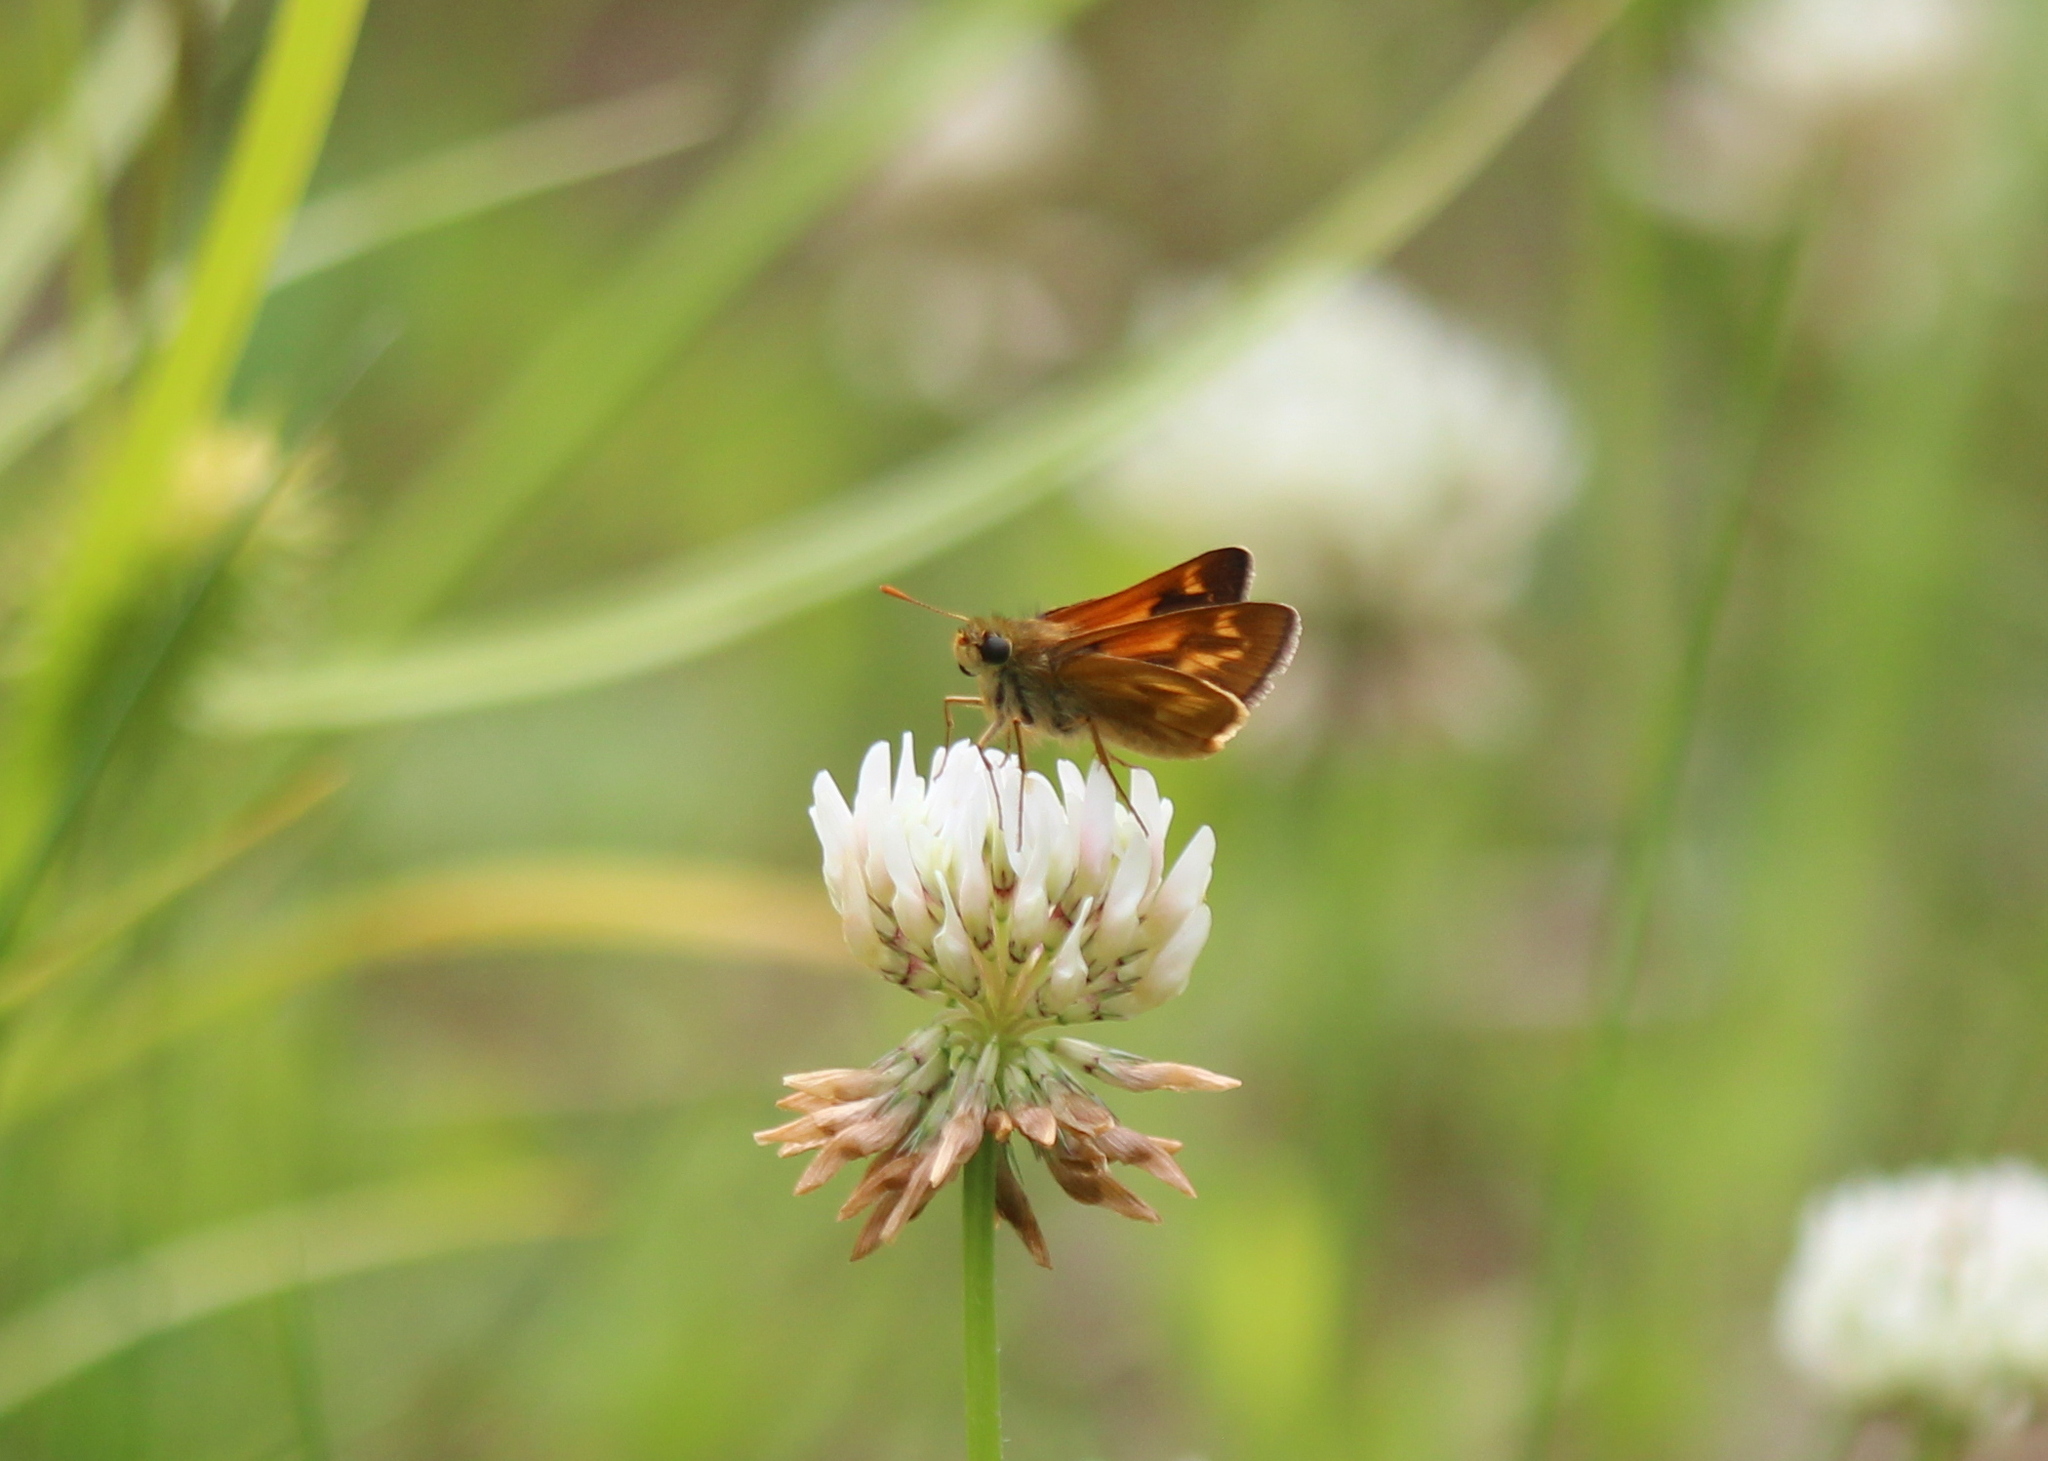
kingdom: Animalia
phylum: Arthropoda
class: Insecta
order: Lepidoptera
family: Hesperiidae
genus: Polites
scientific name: Polites mystic
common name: Long dash
